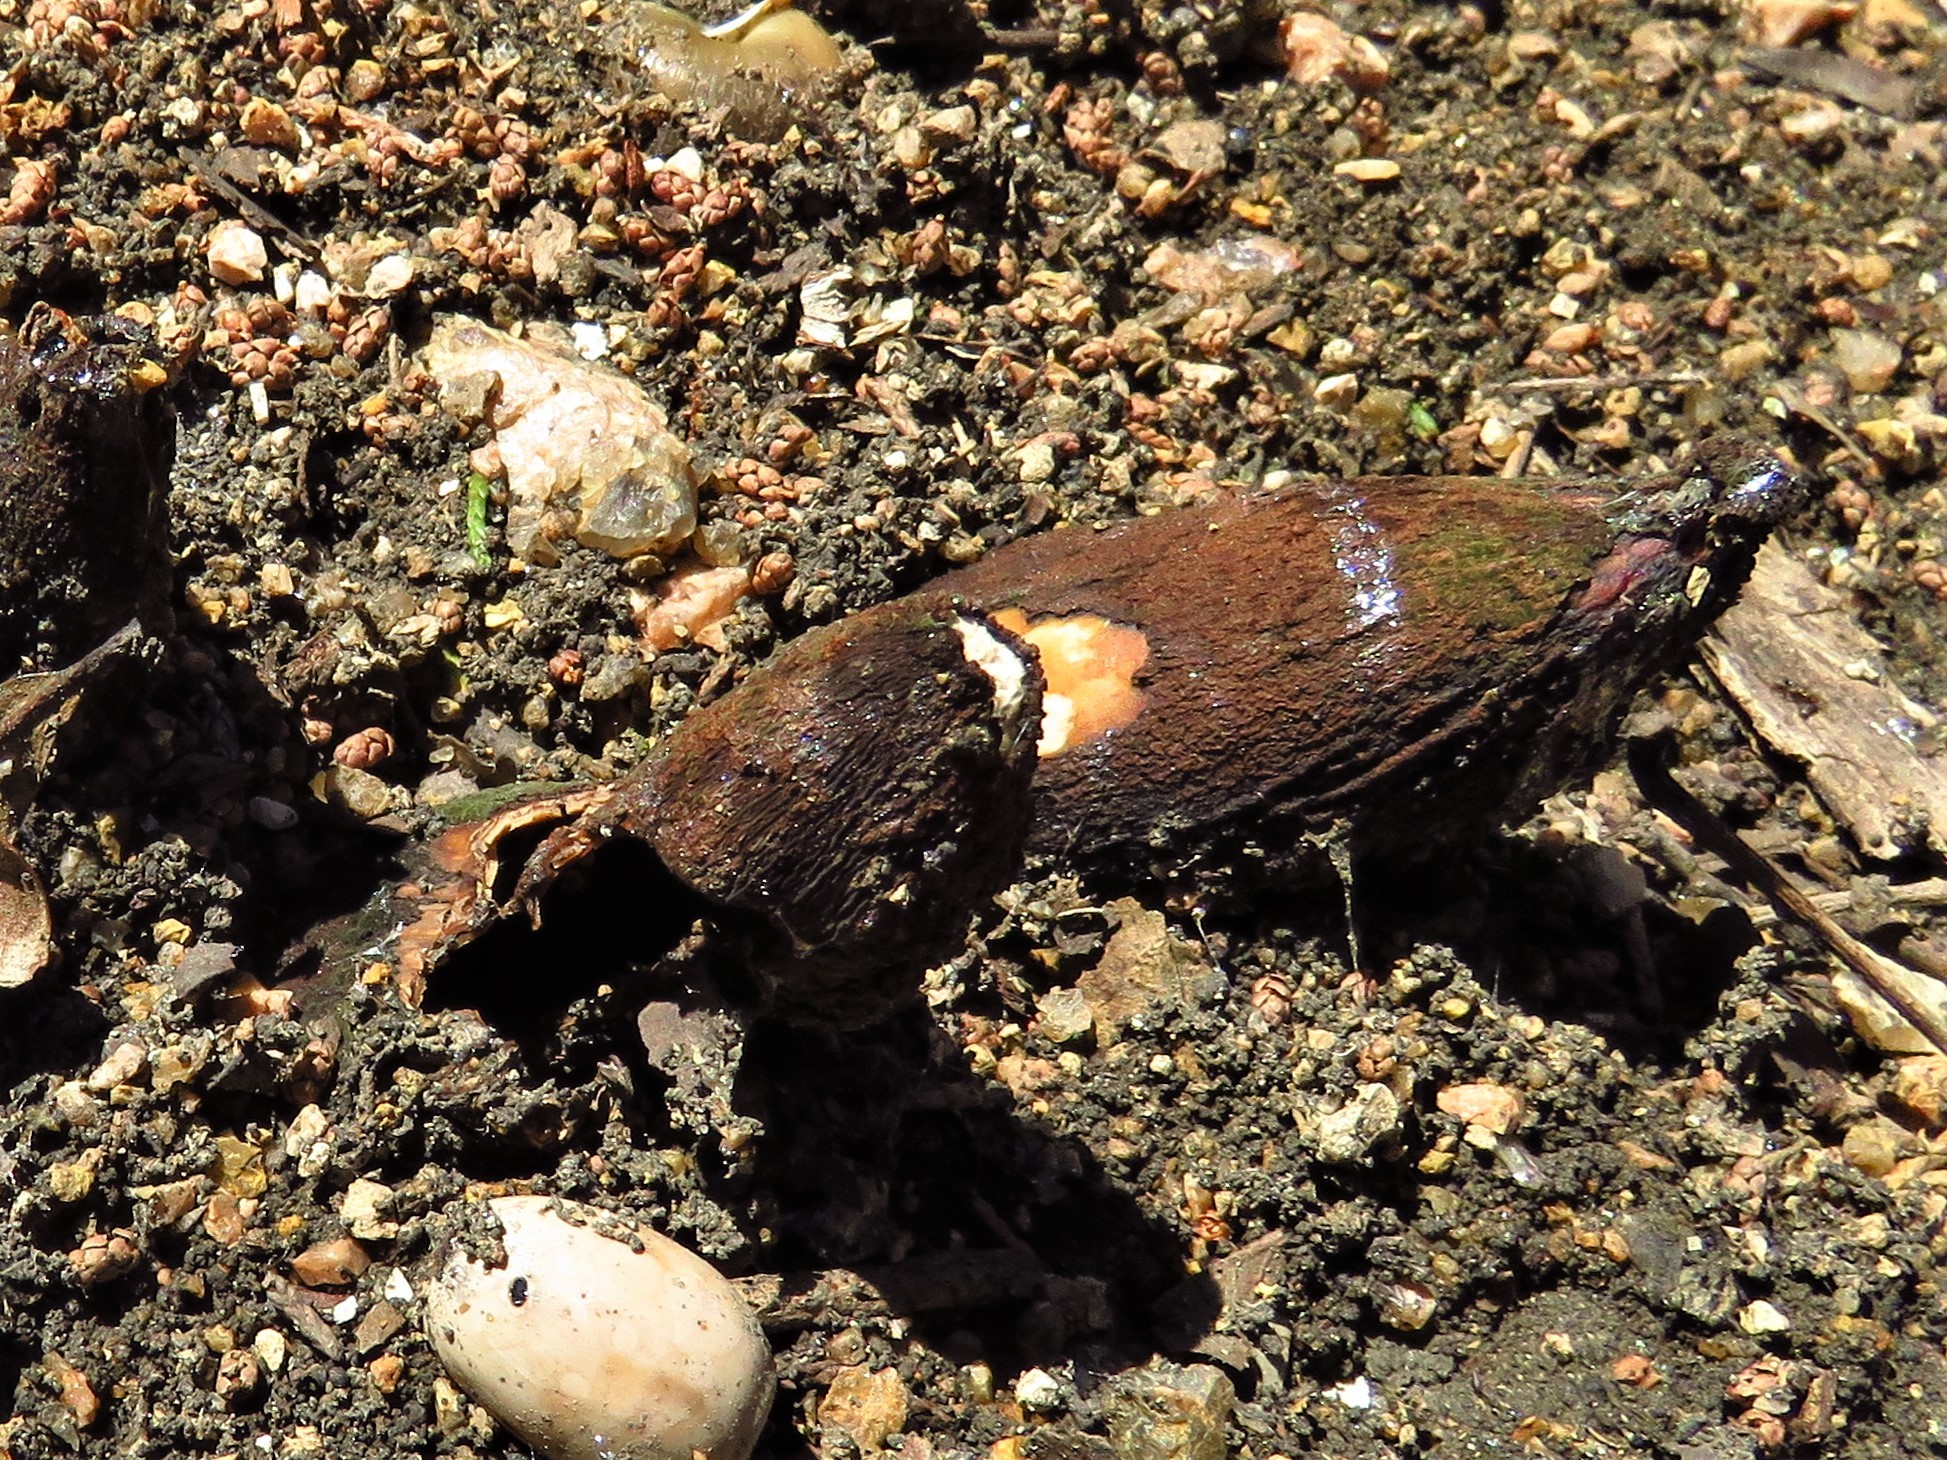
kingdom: Fungi
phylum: Ascomycota
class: Pezizomycetes
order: Pezizales
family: Chorioactidaceae
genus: Chorioactis
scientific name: Chorioactis geaster
